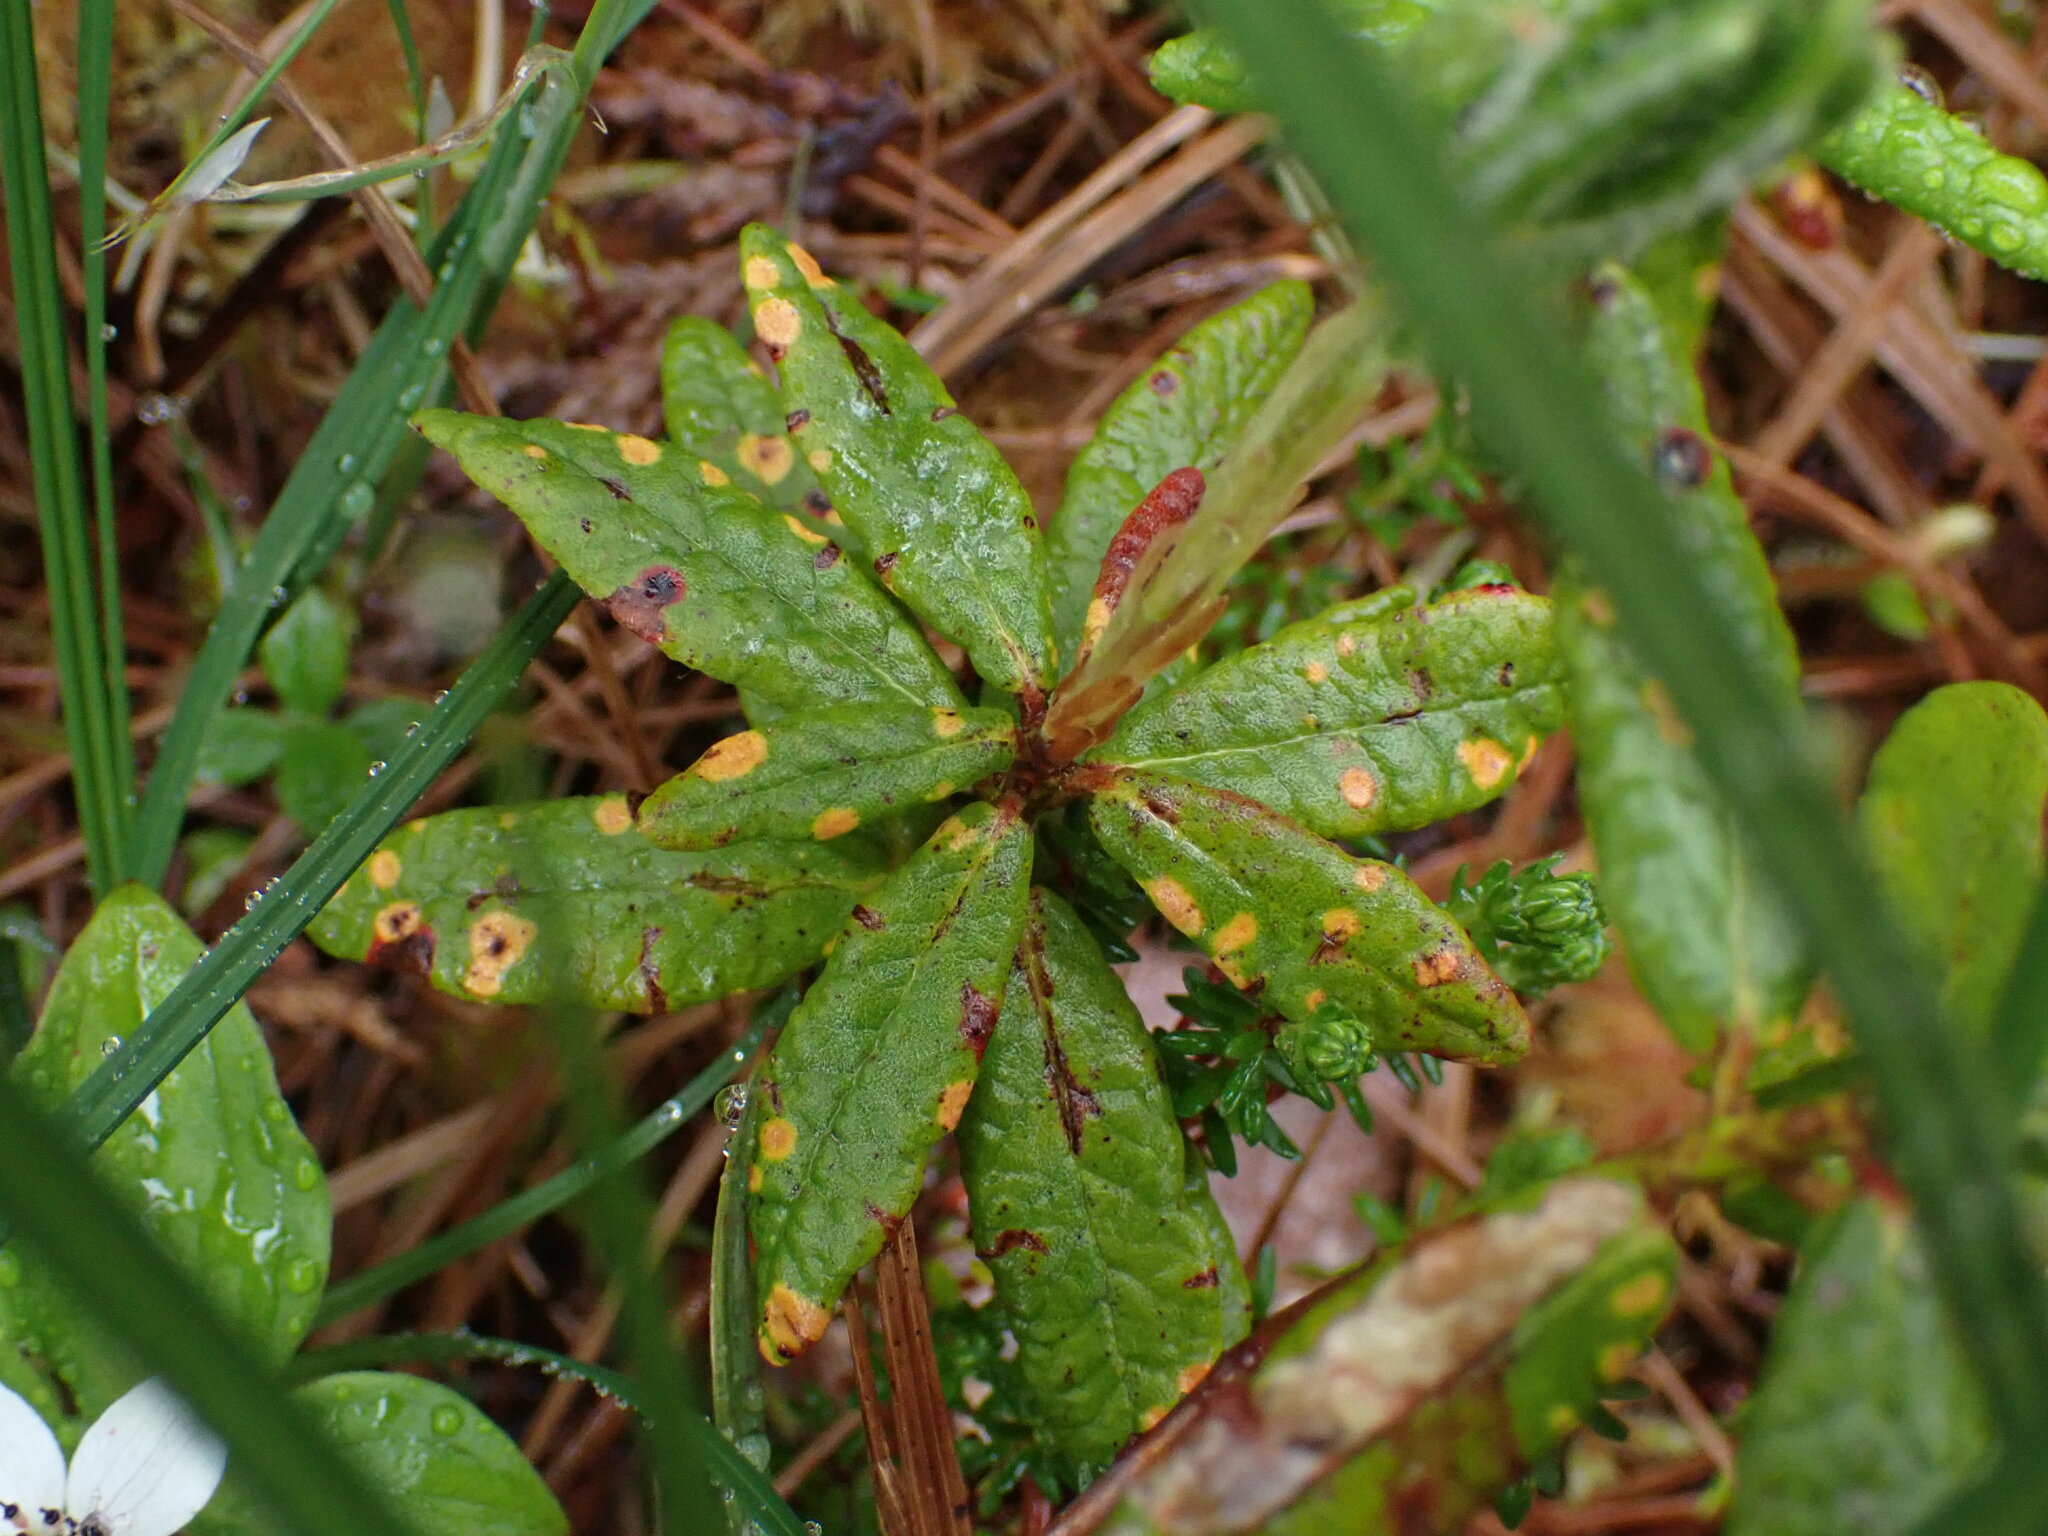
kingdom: Plantae
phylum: Tracheophyta
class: Magnoliopsida
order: Ericales
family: Ericaceae
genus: Rhododendron
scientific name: Rhododendron groenlandicum
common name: Bog labrador tea
